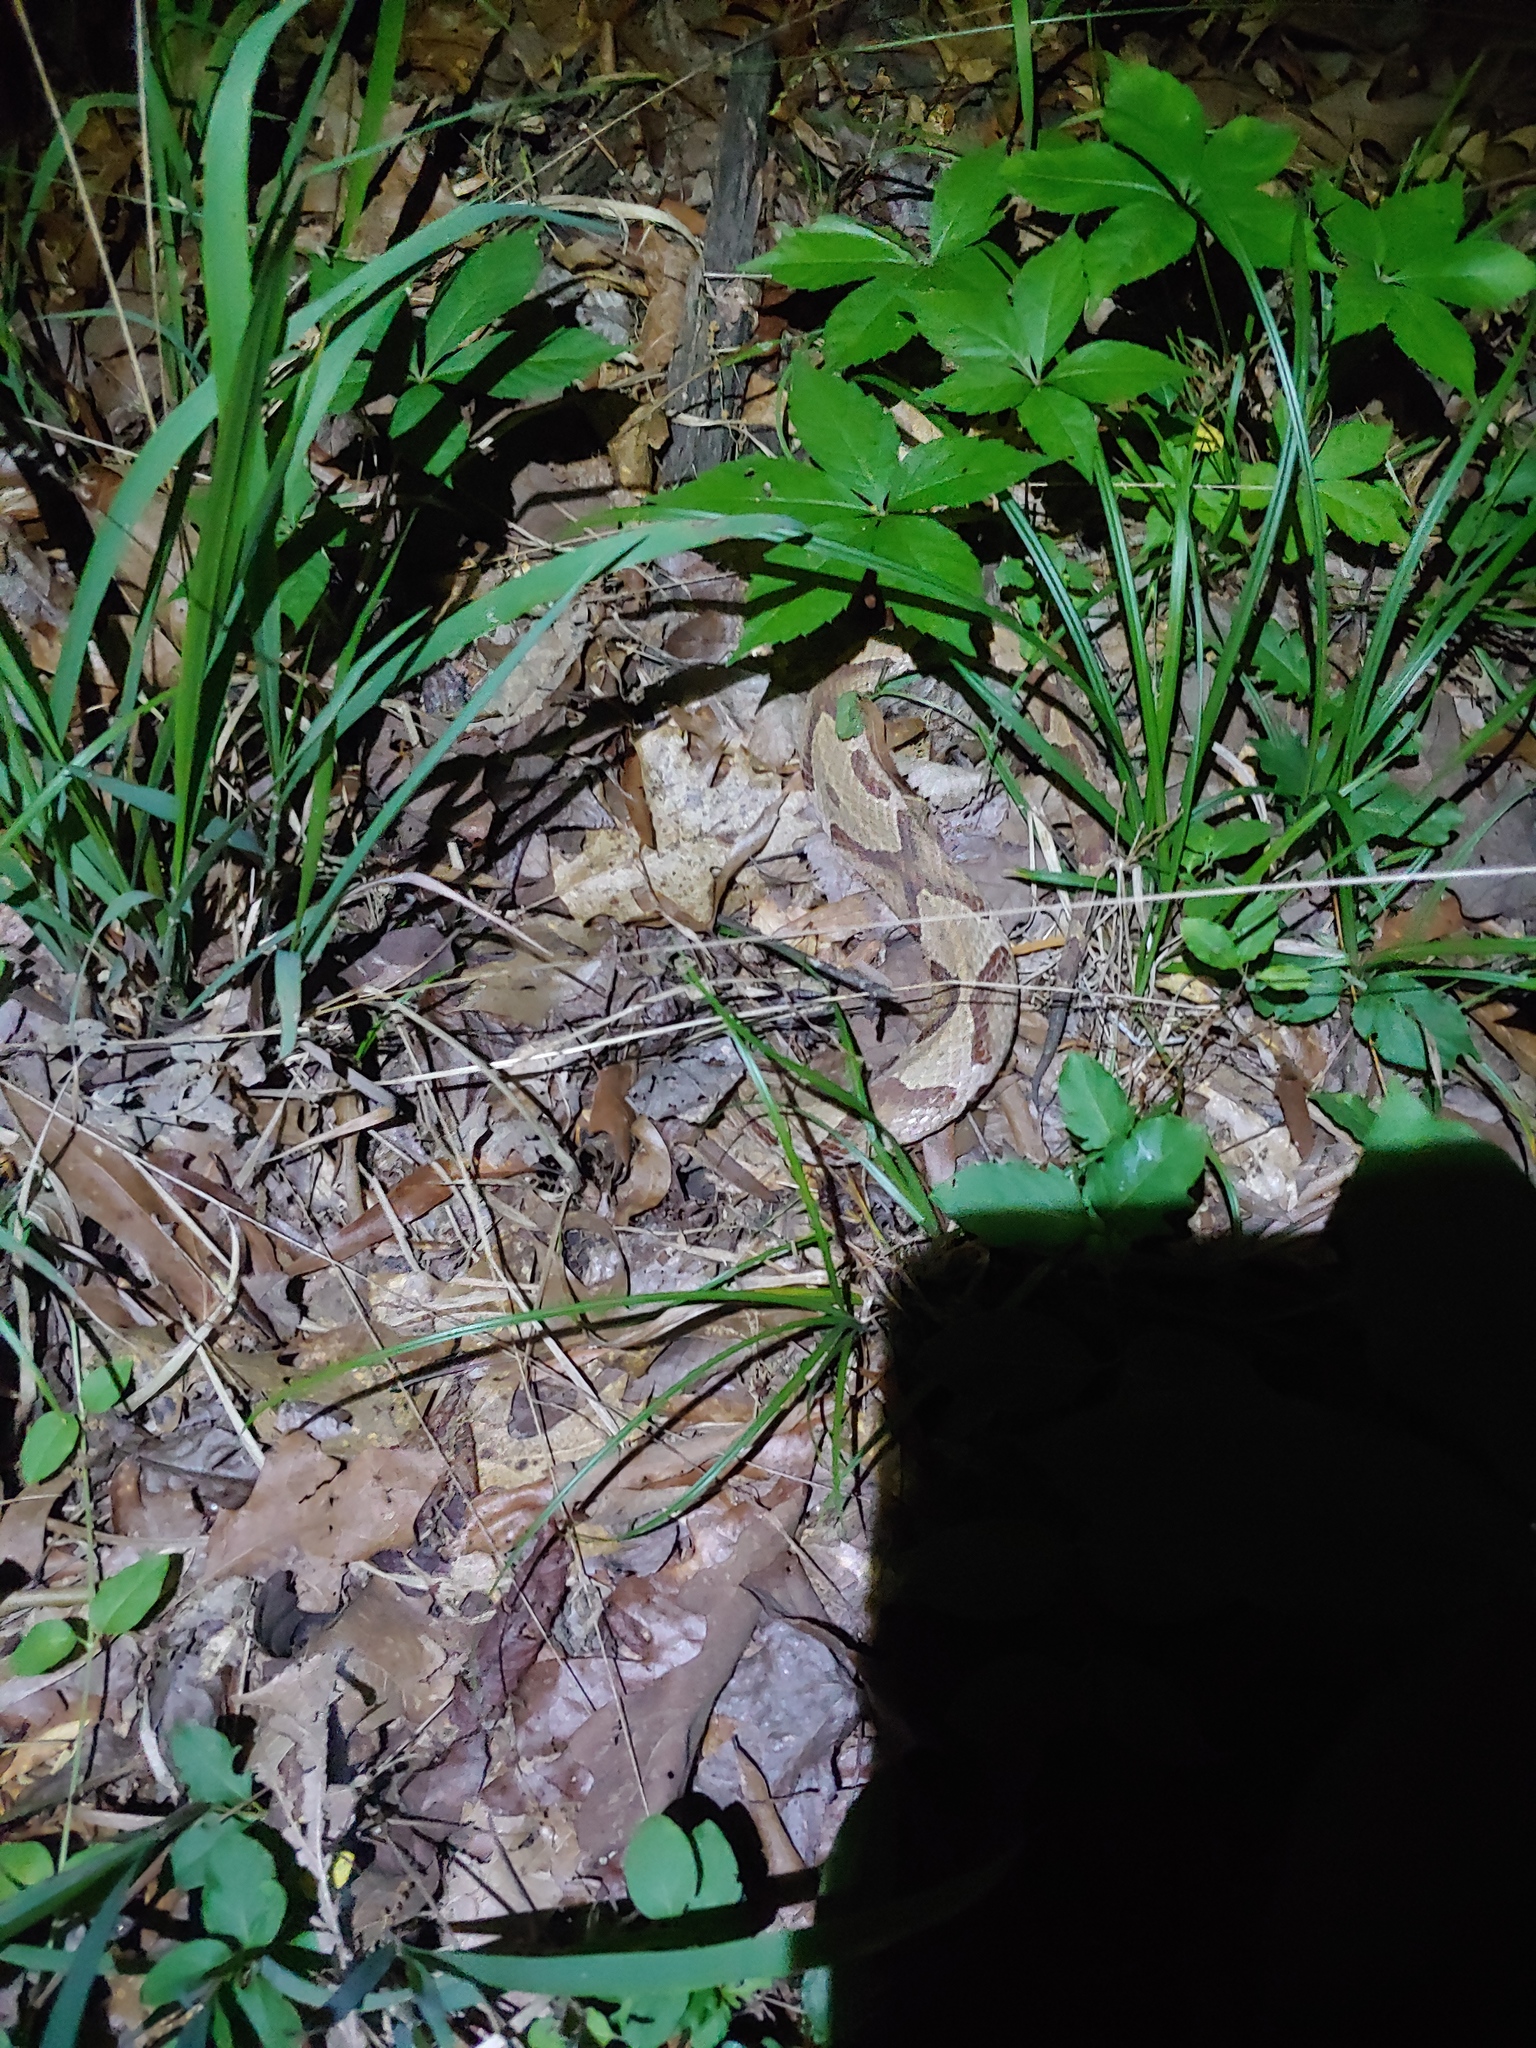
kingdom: Animalia
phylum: Chordata
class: Squamata
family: Viperidae
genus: Agkistrodon
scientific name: Agkistrodon contortrix
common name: Northern copperhead
